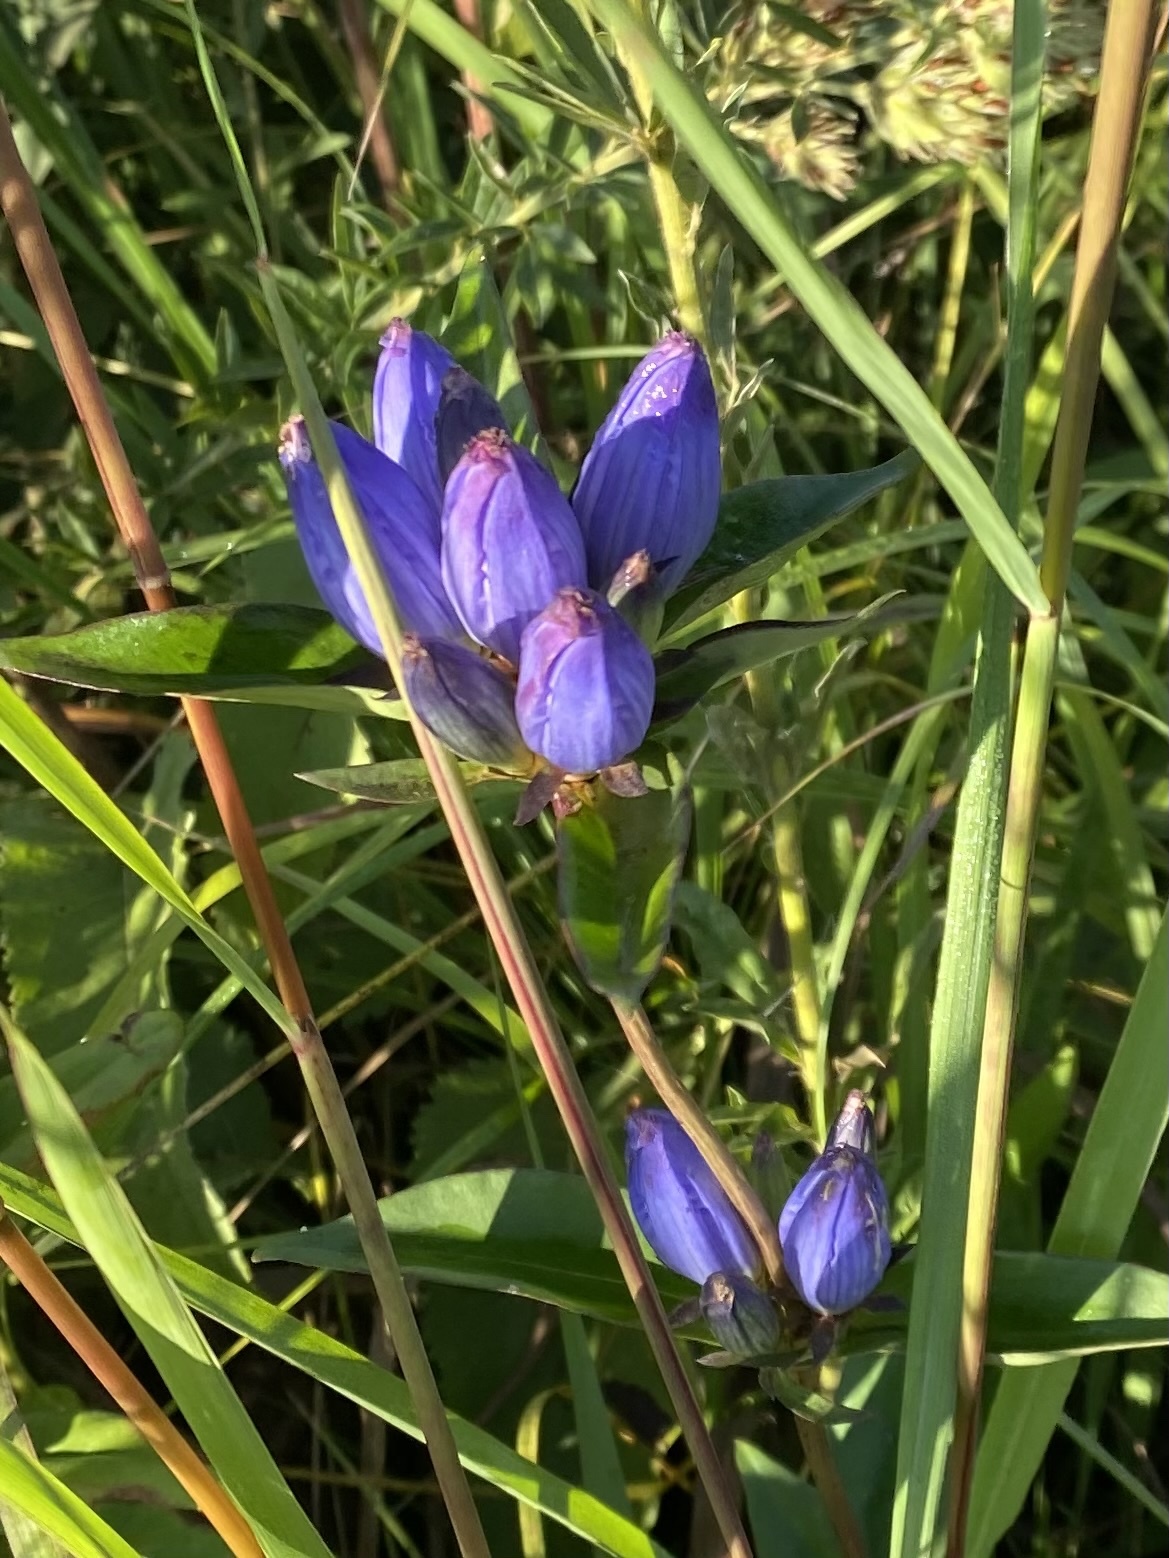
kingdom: Plantae
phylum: Tracheophyta
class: Magnoliopsida
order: Gentianales
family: Gentianaceae
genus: Gentiana
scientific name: Gentiana andrewsii
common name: Bottle gentian
